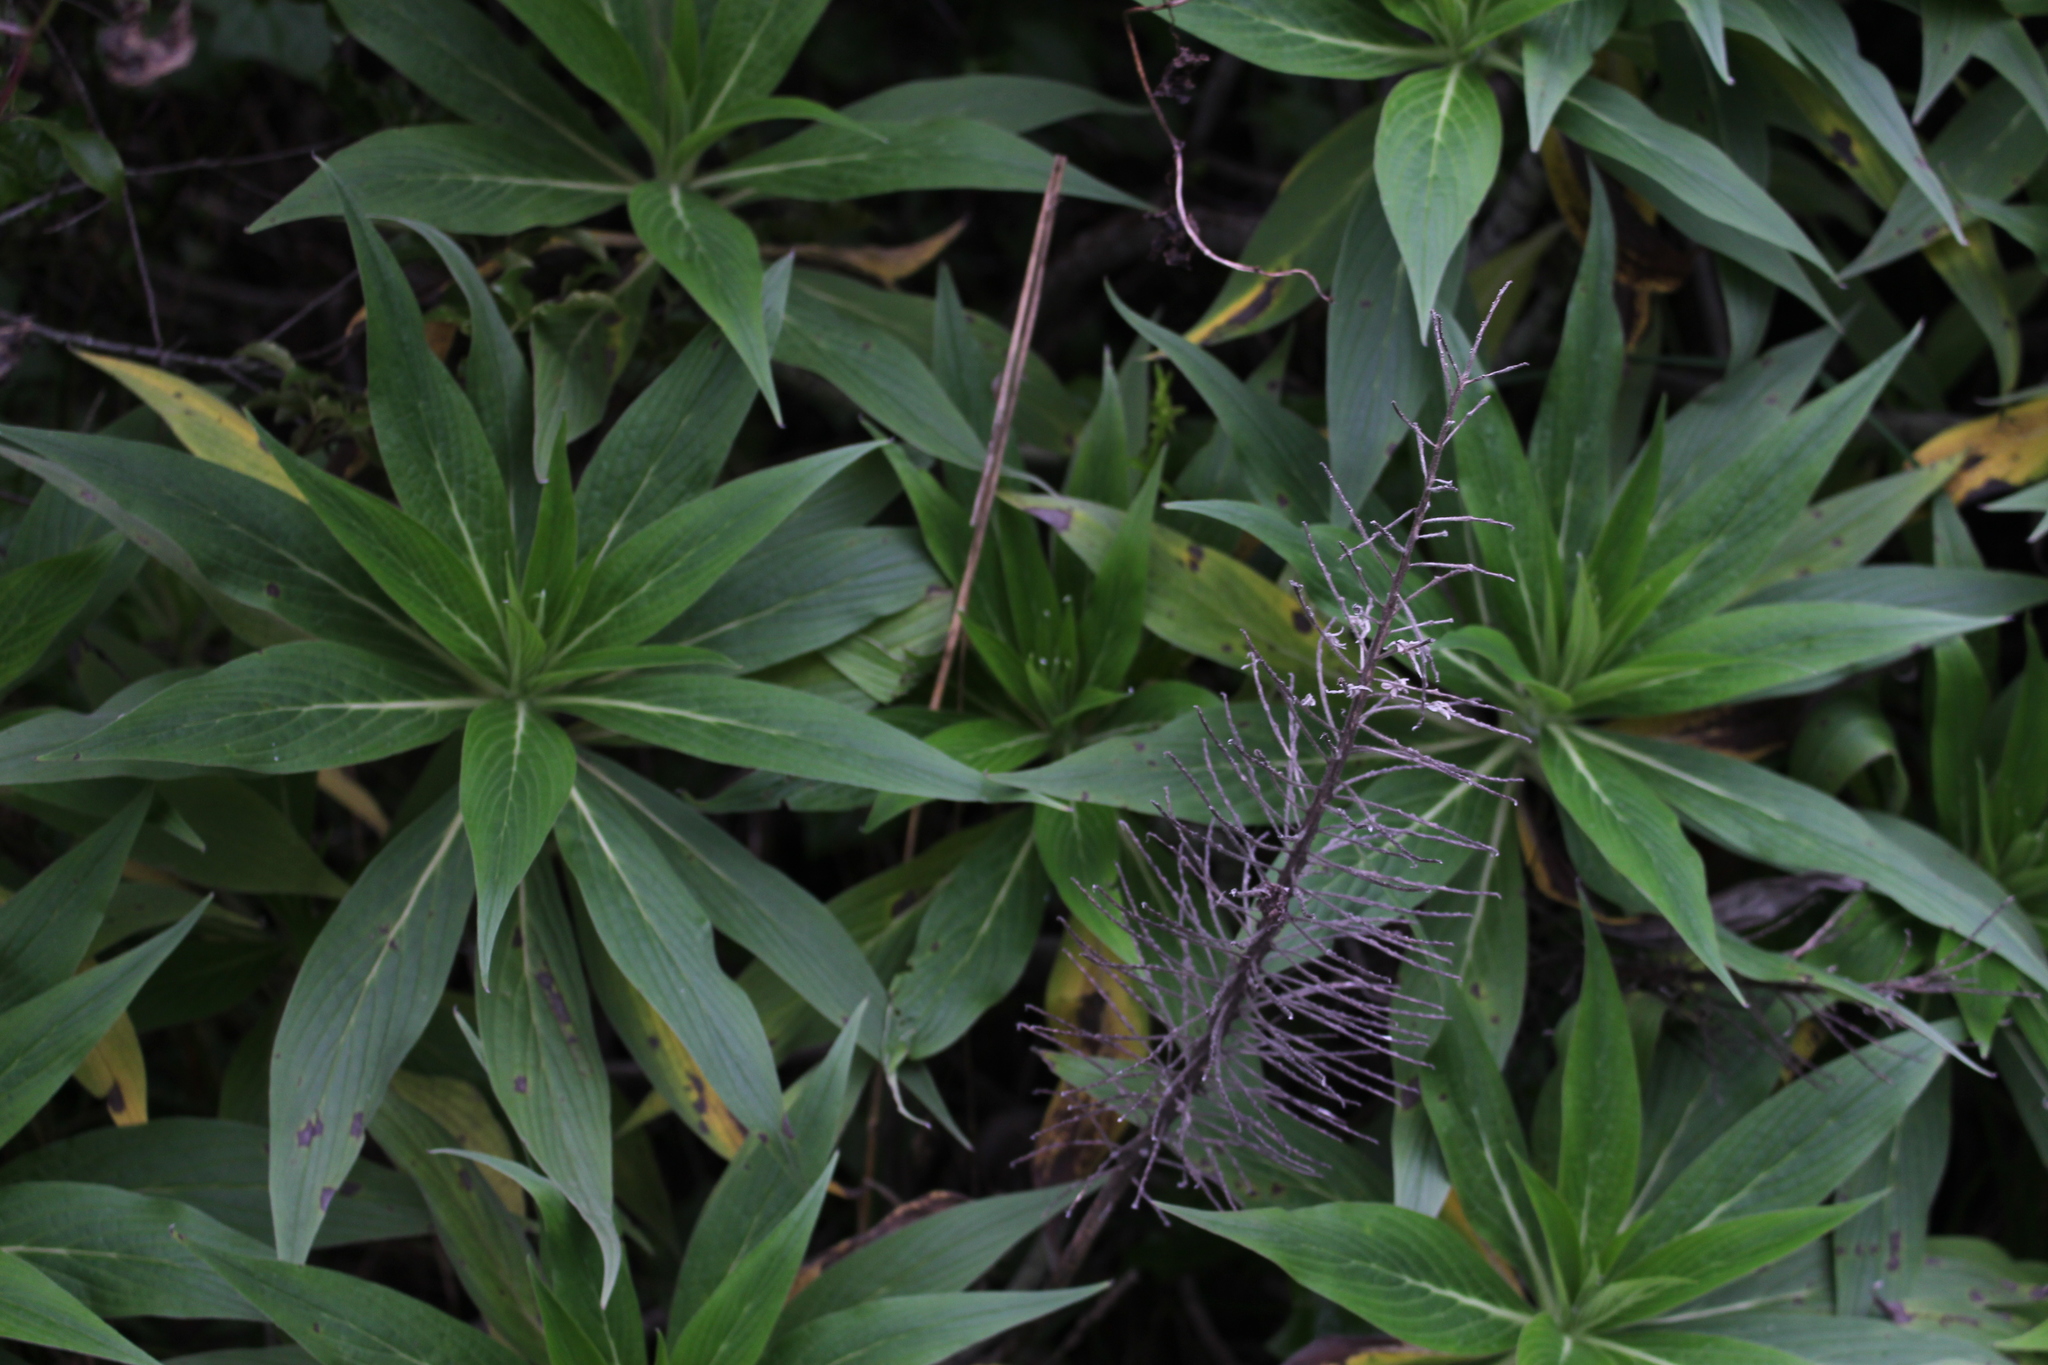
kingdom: Plantae
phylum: Tracheophyta
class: Magnoliopsida
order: Boraginales
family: Boraginaceae
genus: Echium
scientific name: Echium candicans
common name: Pride of madeira
